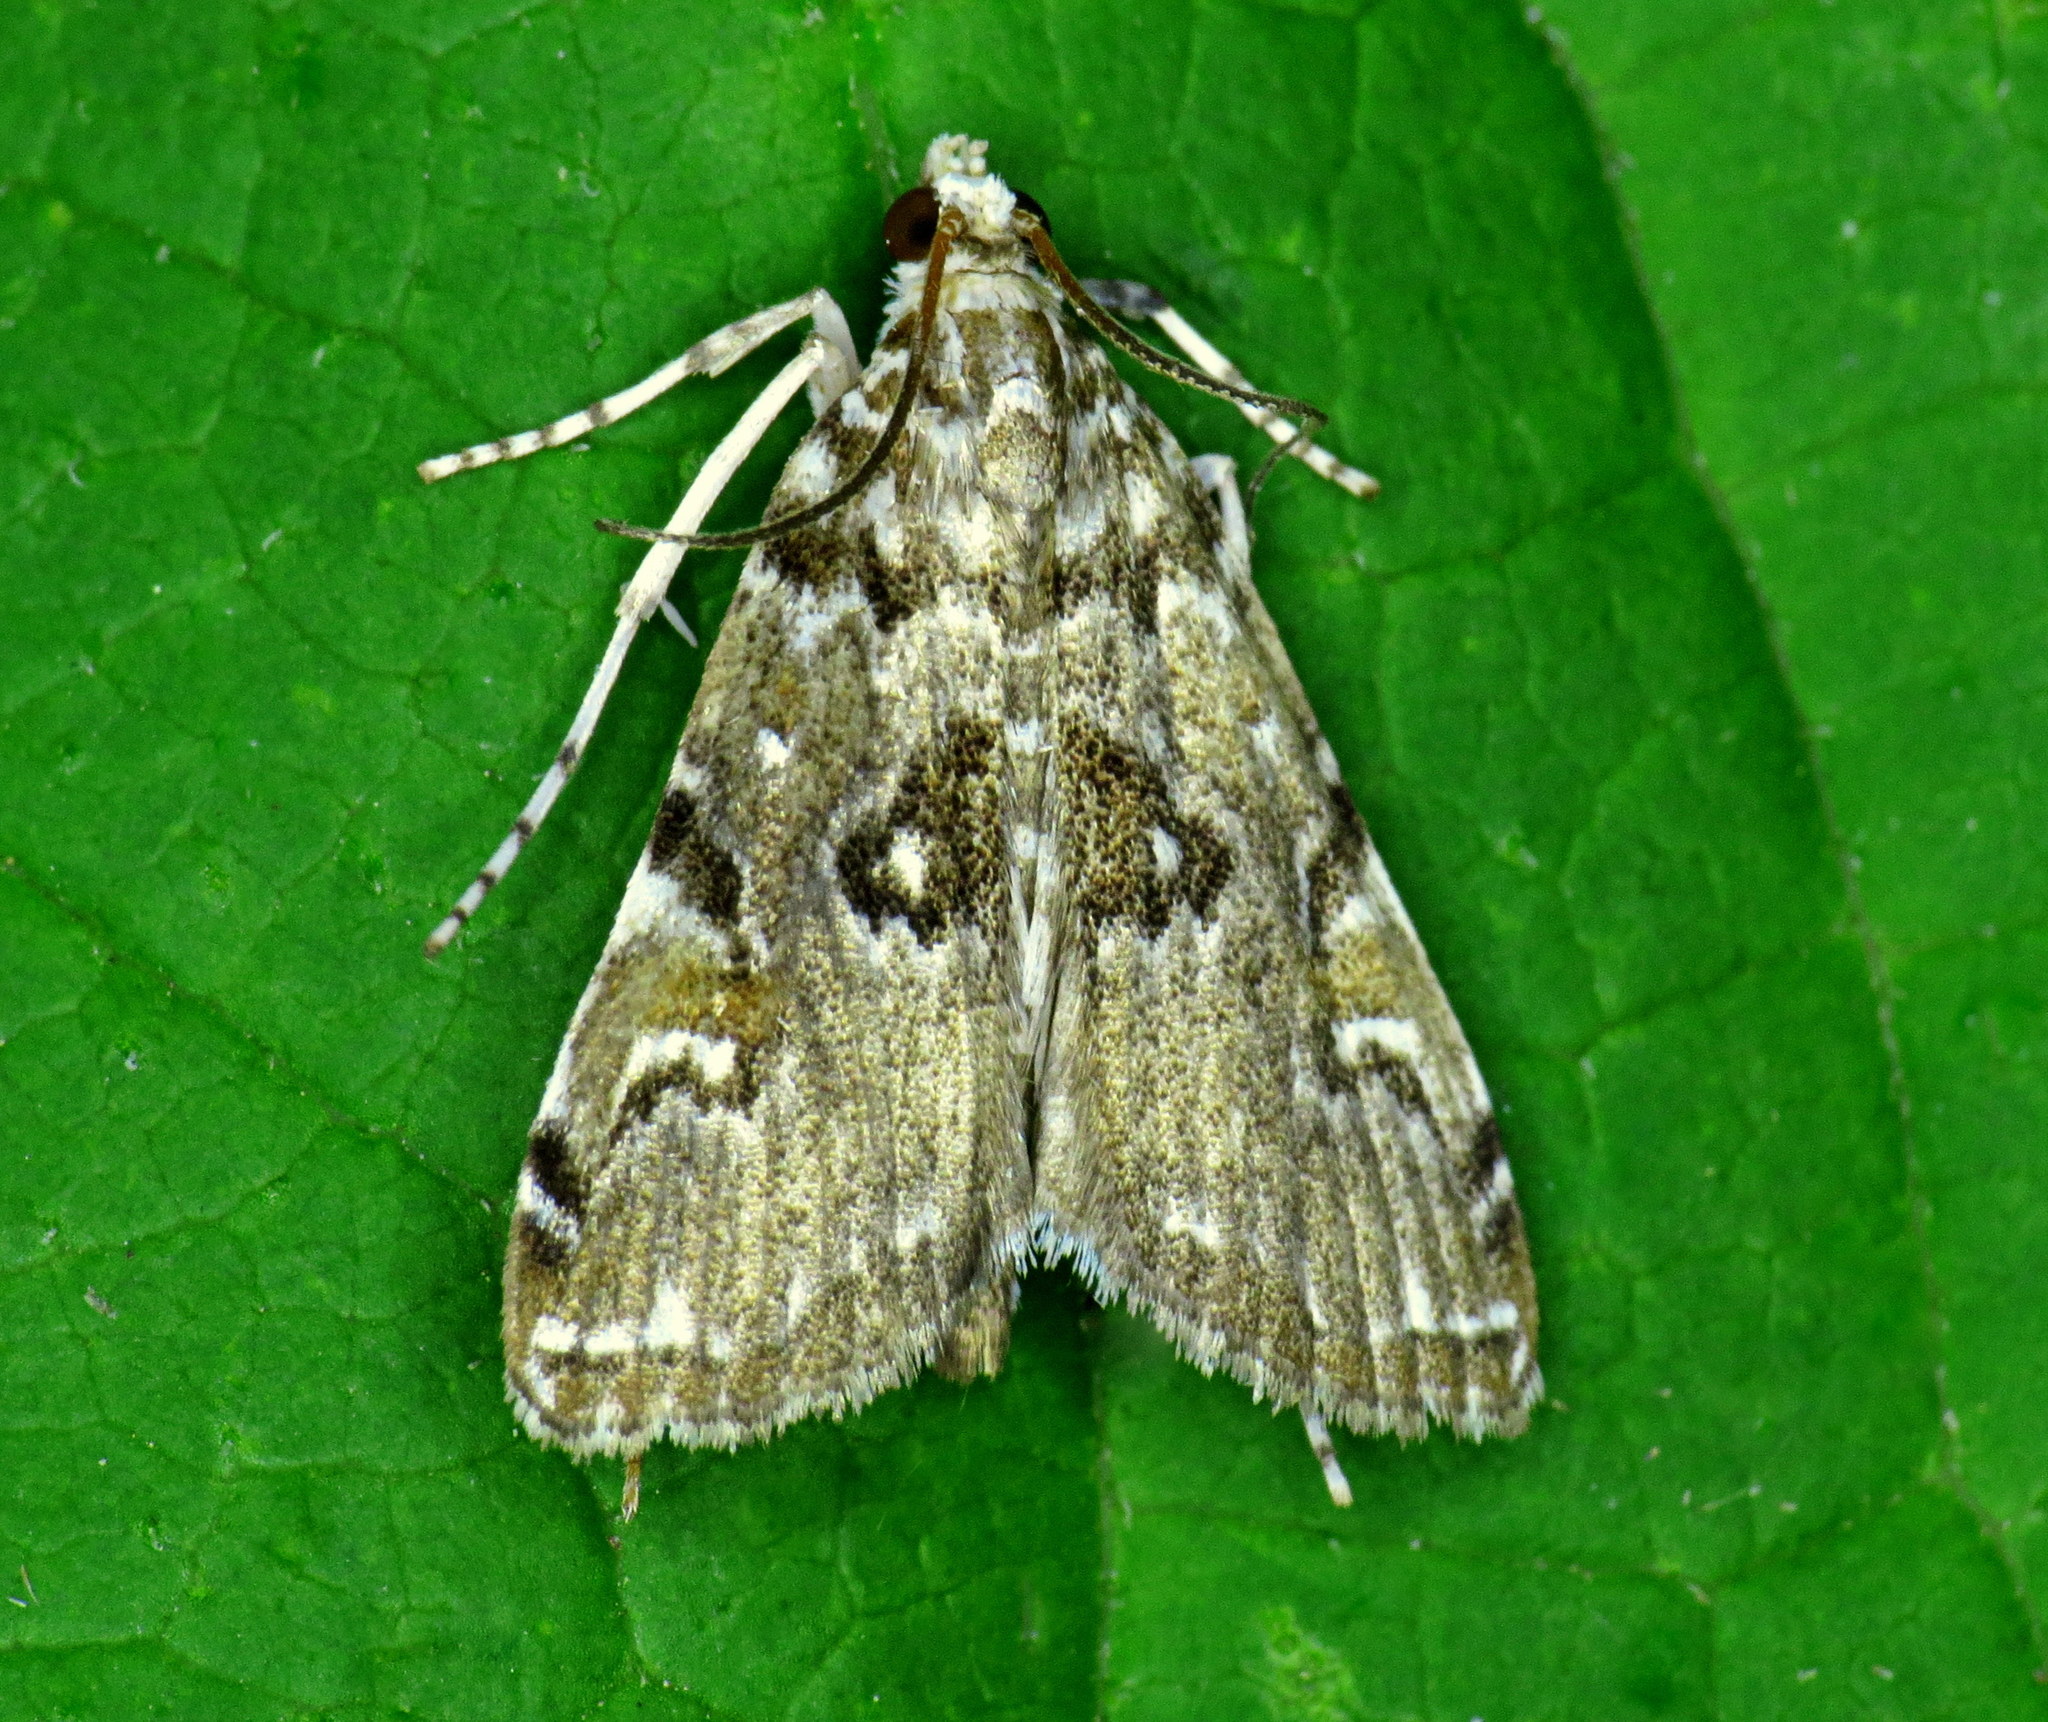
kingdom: Animalia
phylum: Arthropoda
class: Insecta
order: Lepidoptera
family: Crambidae
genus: Elophila
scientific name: Elophila gyralis
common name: Waterlily borer moth
